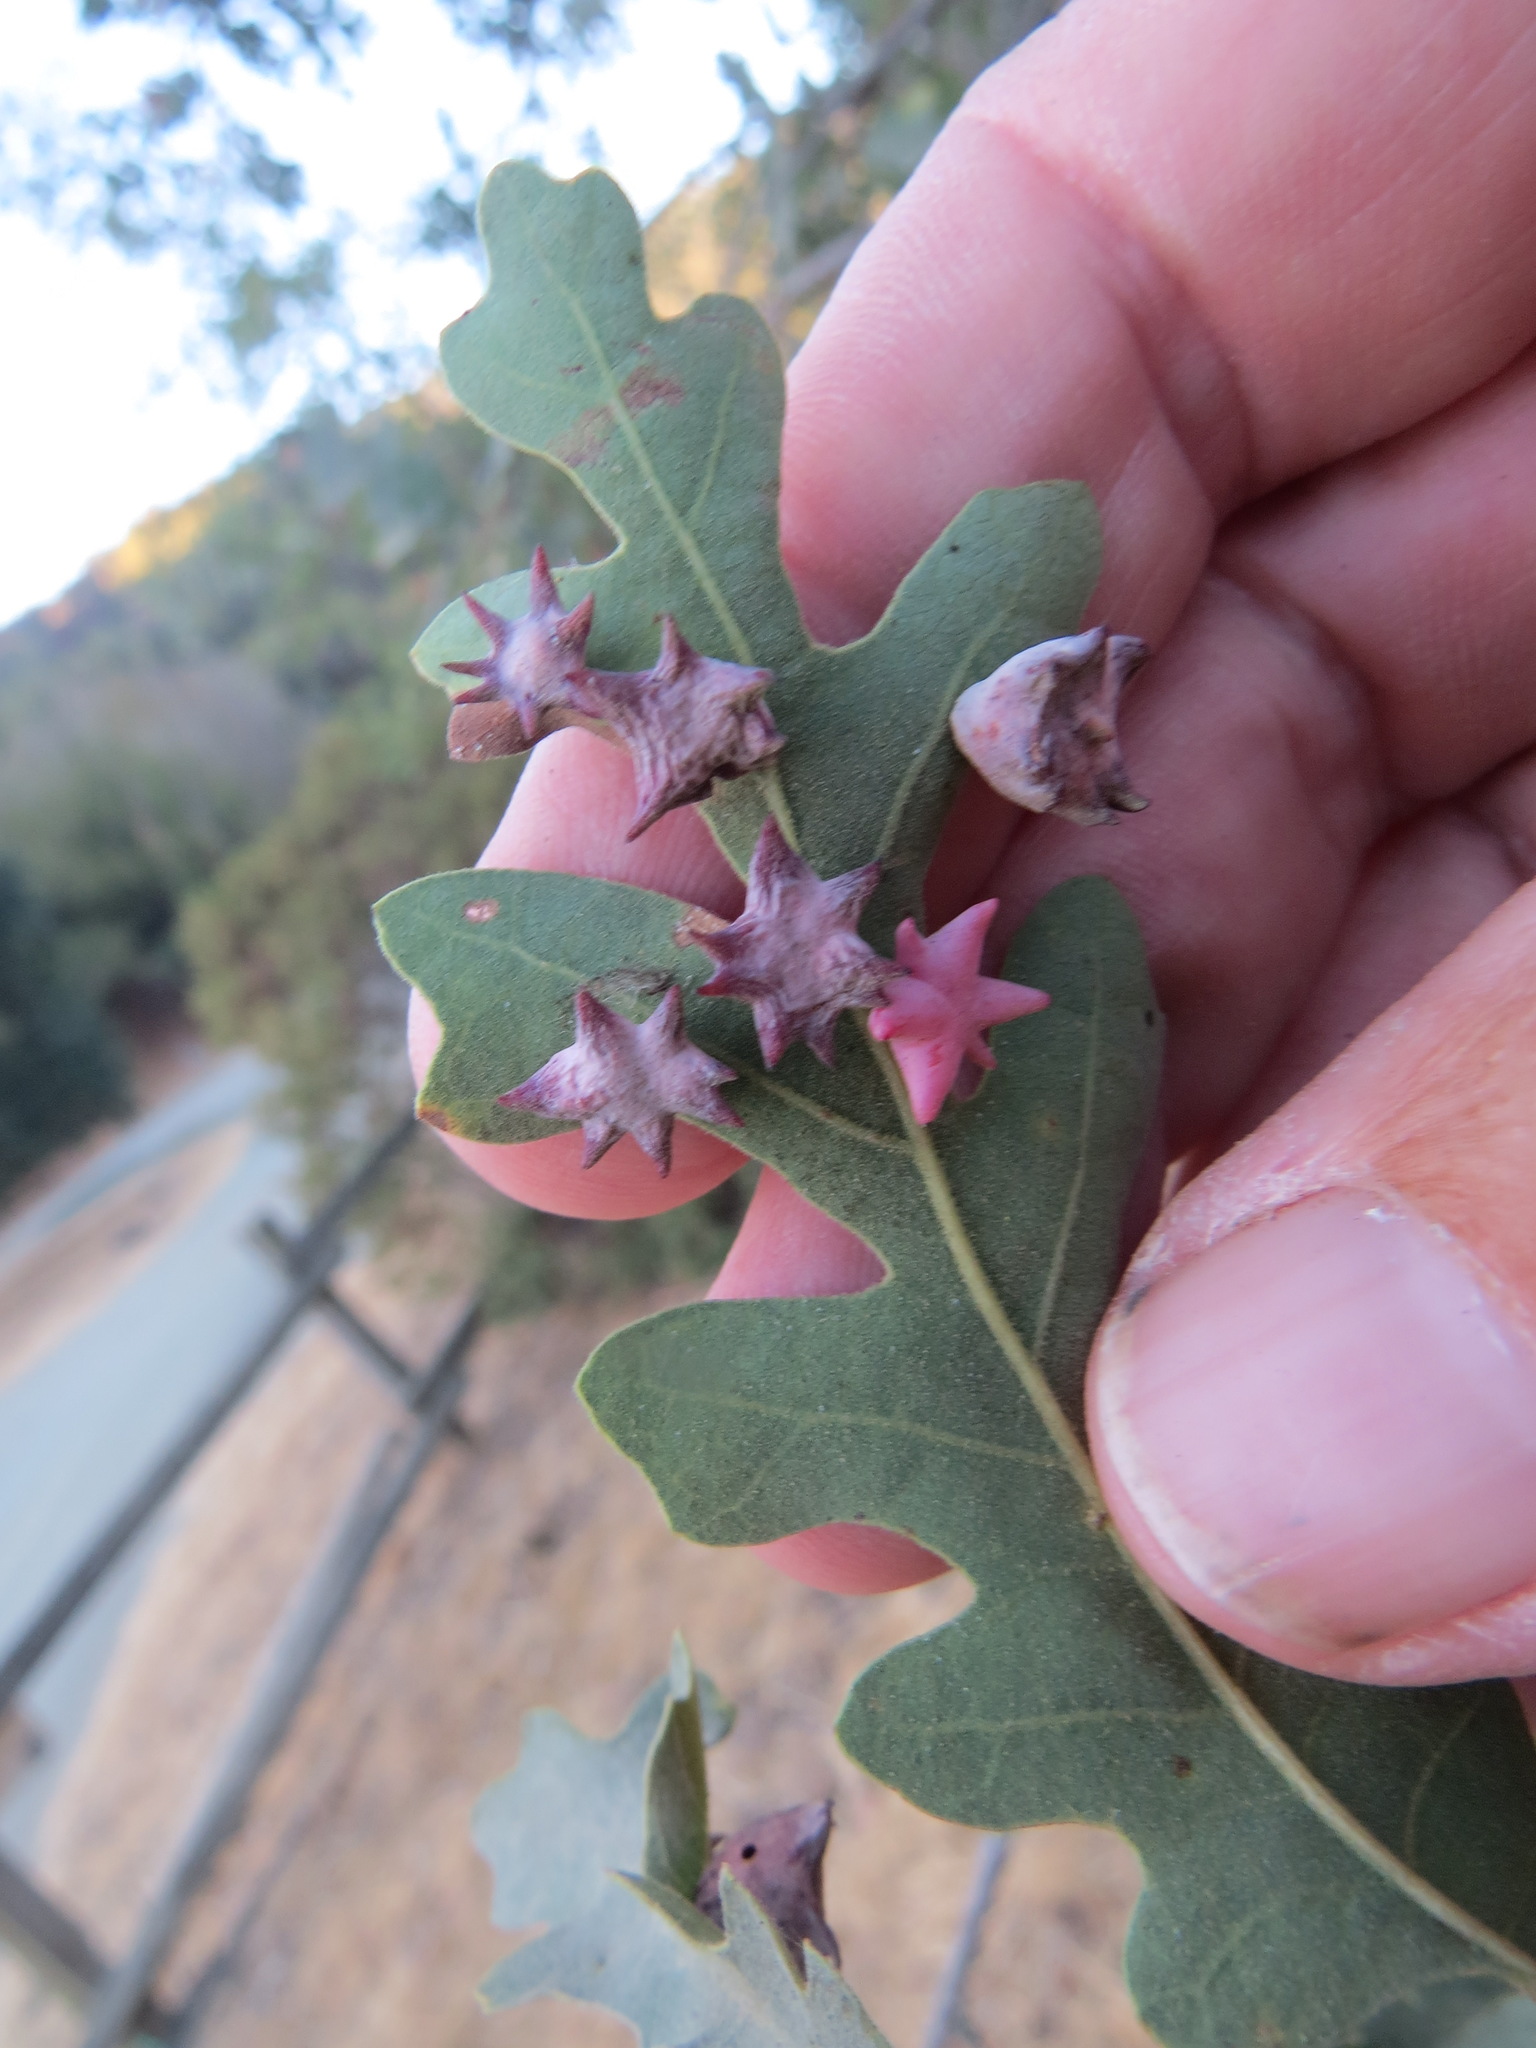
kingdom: Animalia
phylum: Arthropoda
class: Insecta
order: Hymenoptera
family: Cynipidae
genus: Cynips
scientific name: Cynips douglasi
